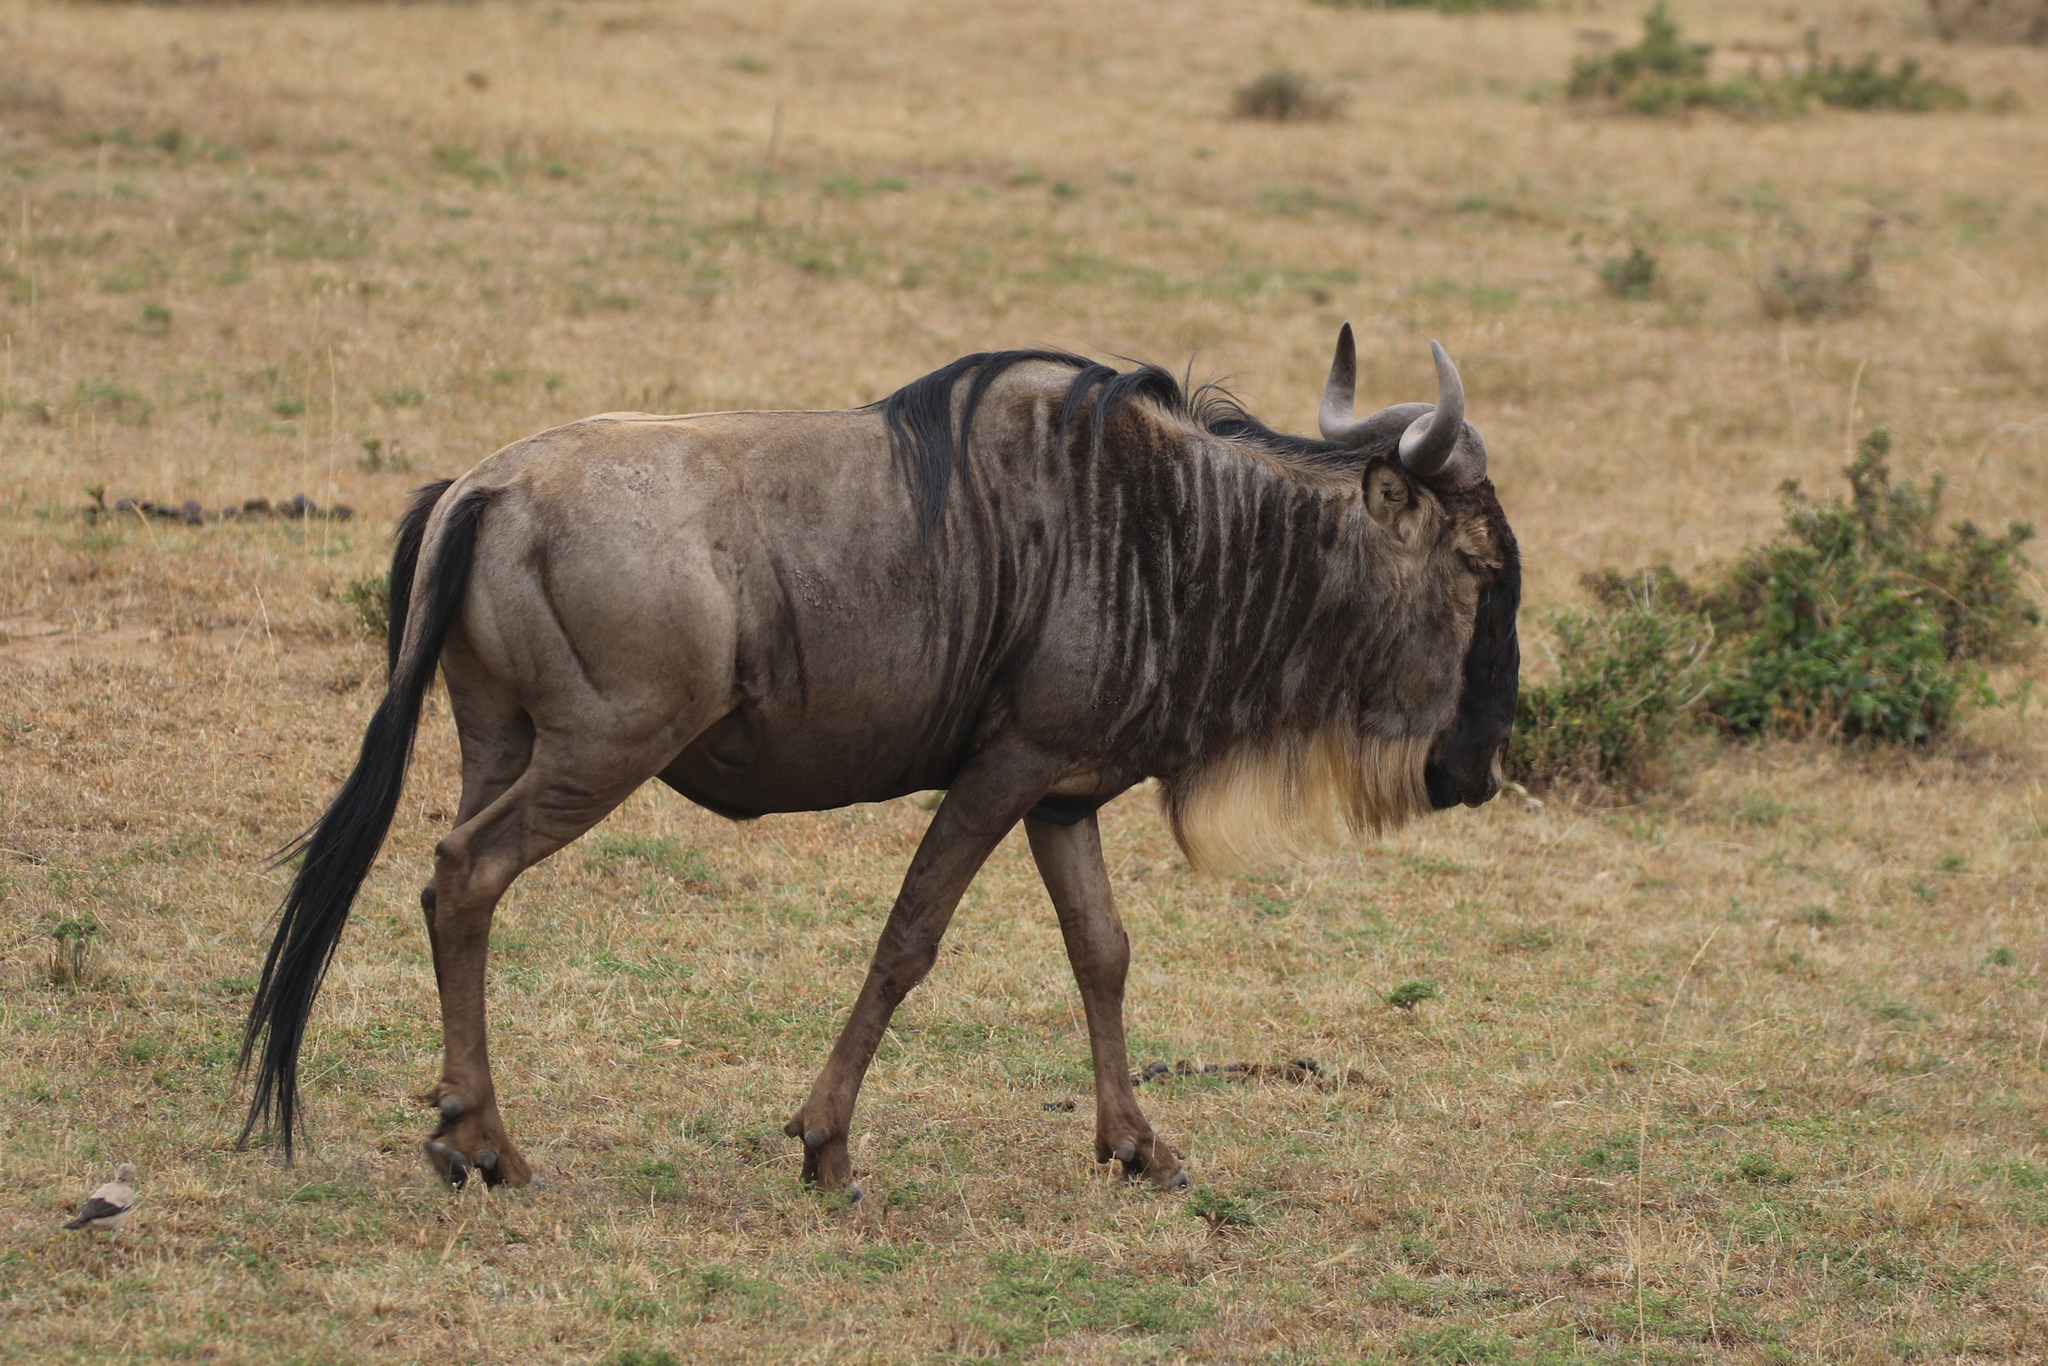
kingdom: Animalia
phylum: Chordata
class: Mammalia
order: Artiodactyla
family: Bovidae
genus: Connochaetes
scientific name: Connochaetes taurinus
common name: Blue wildebeest
